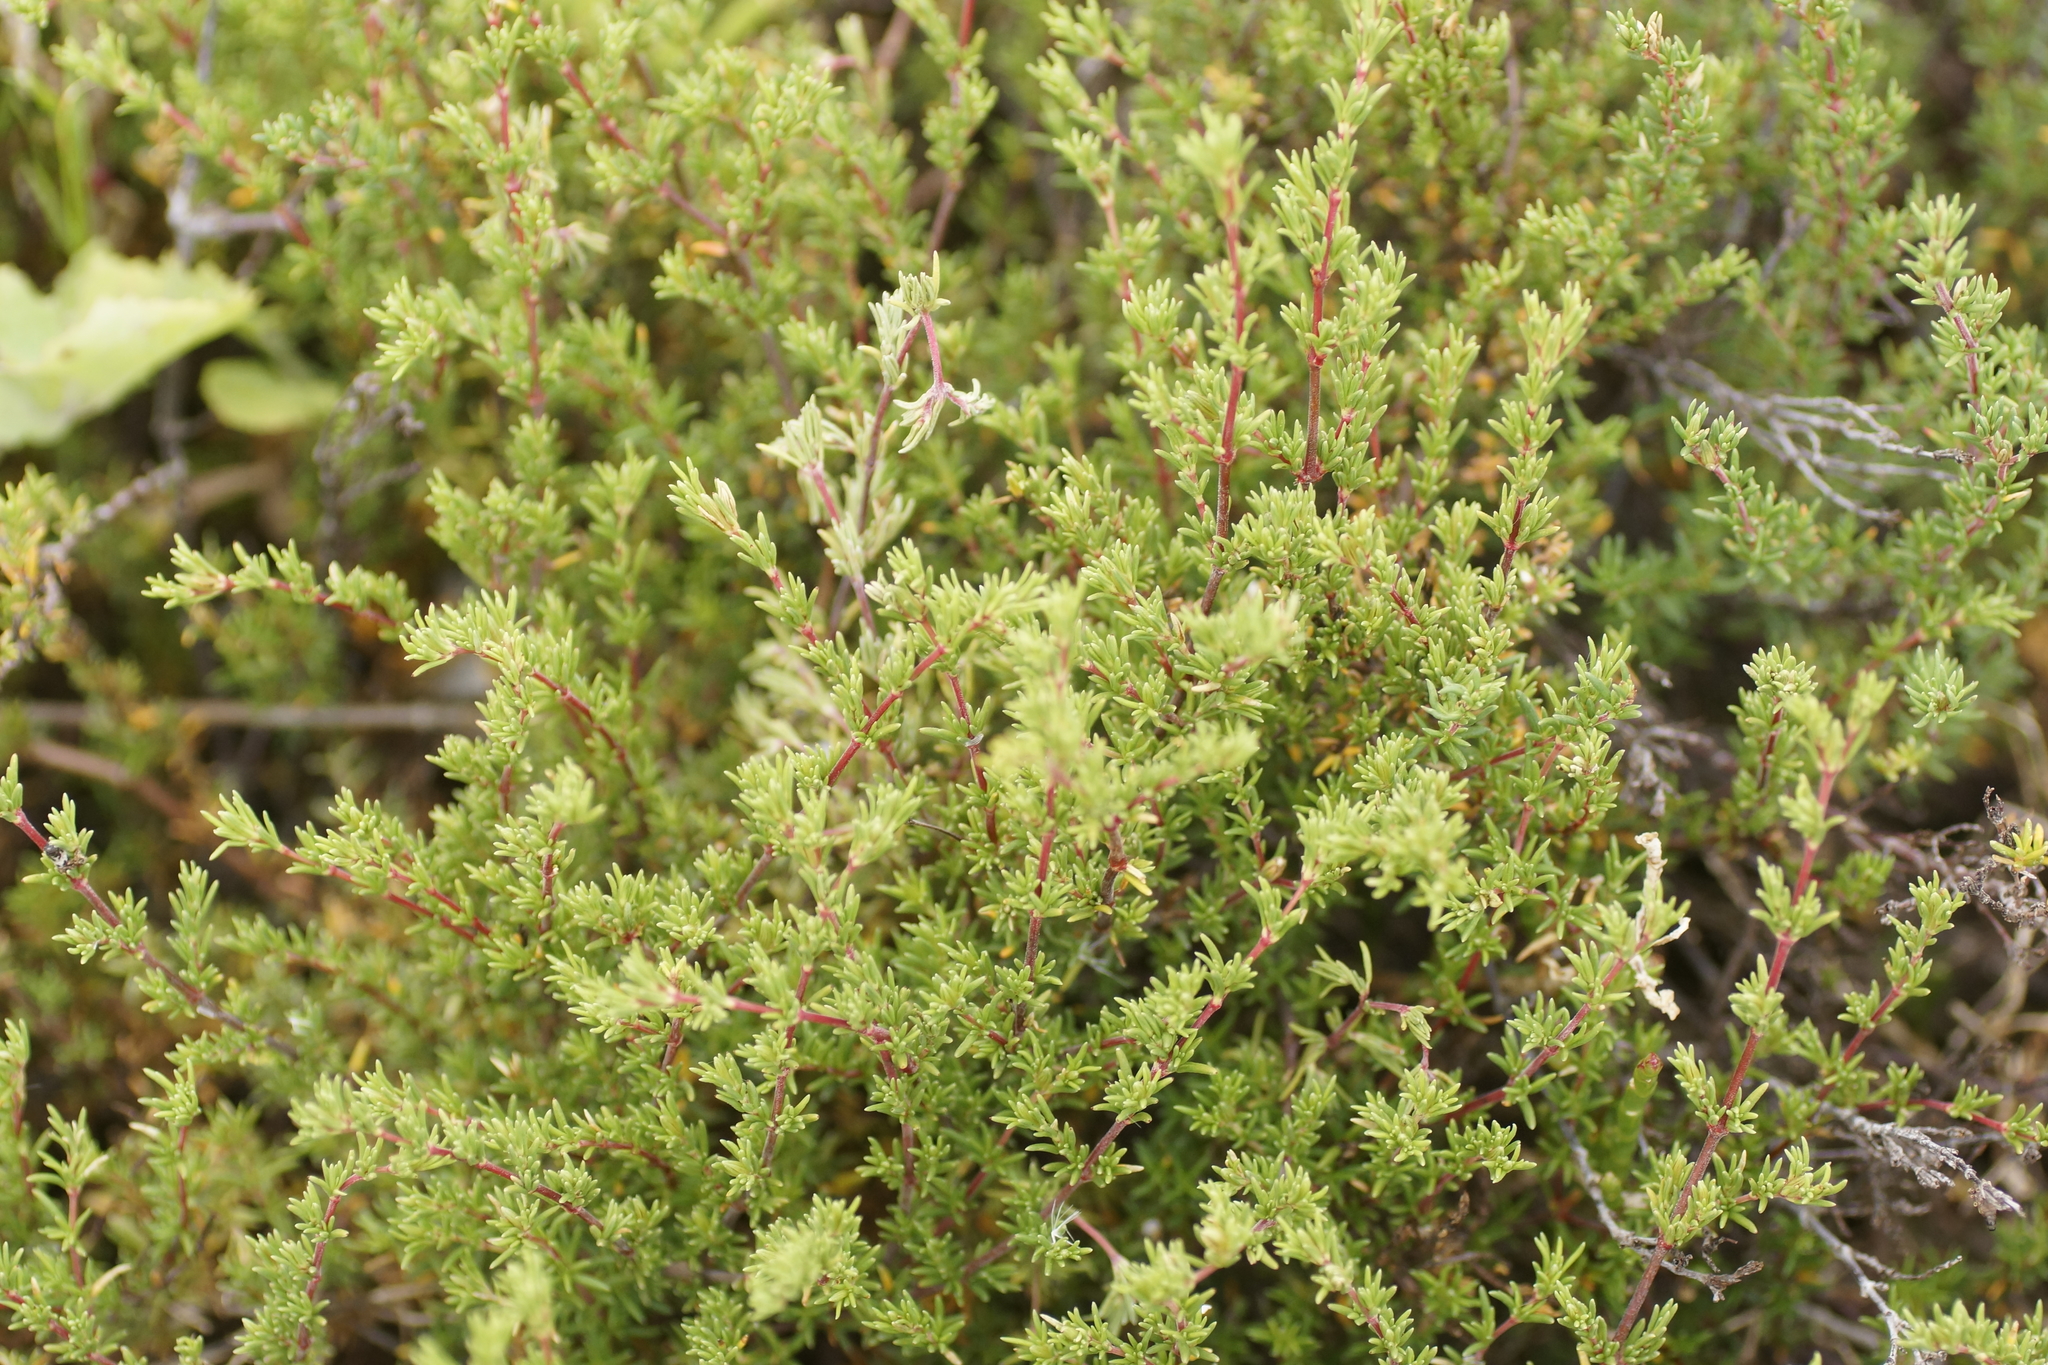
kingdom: Plantae
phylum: Tracheophyta
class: Magnoliopsida
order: Caryophyllales
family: Frankeniaceae
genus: Frankenia
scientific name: Frankenia pauciflora
